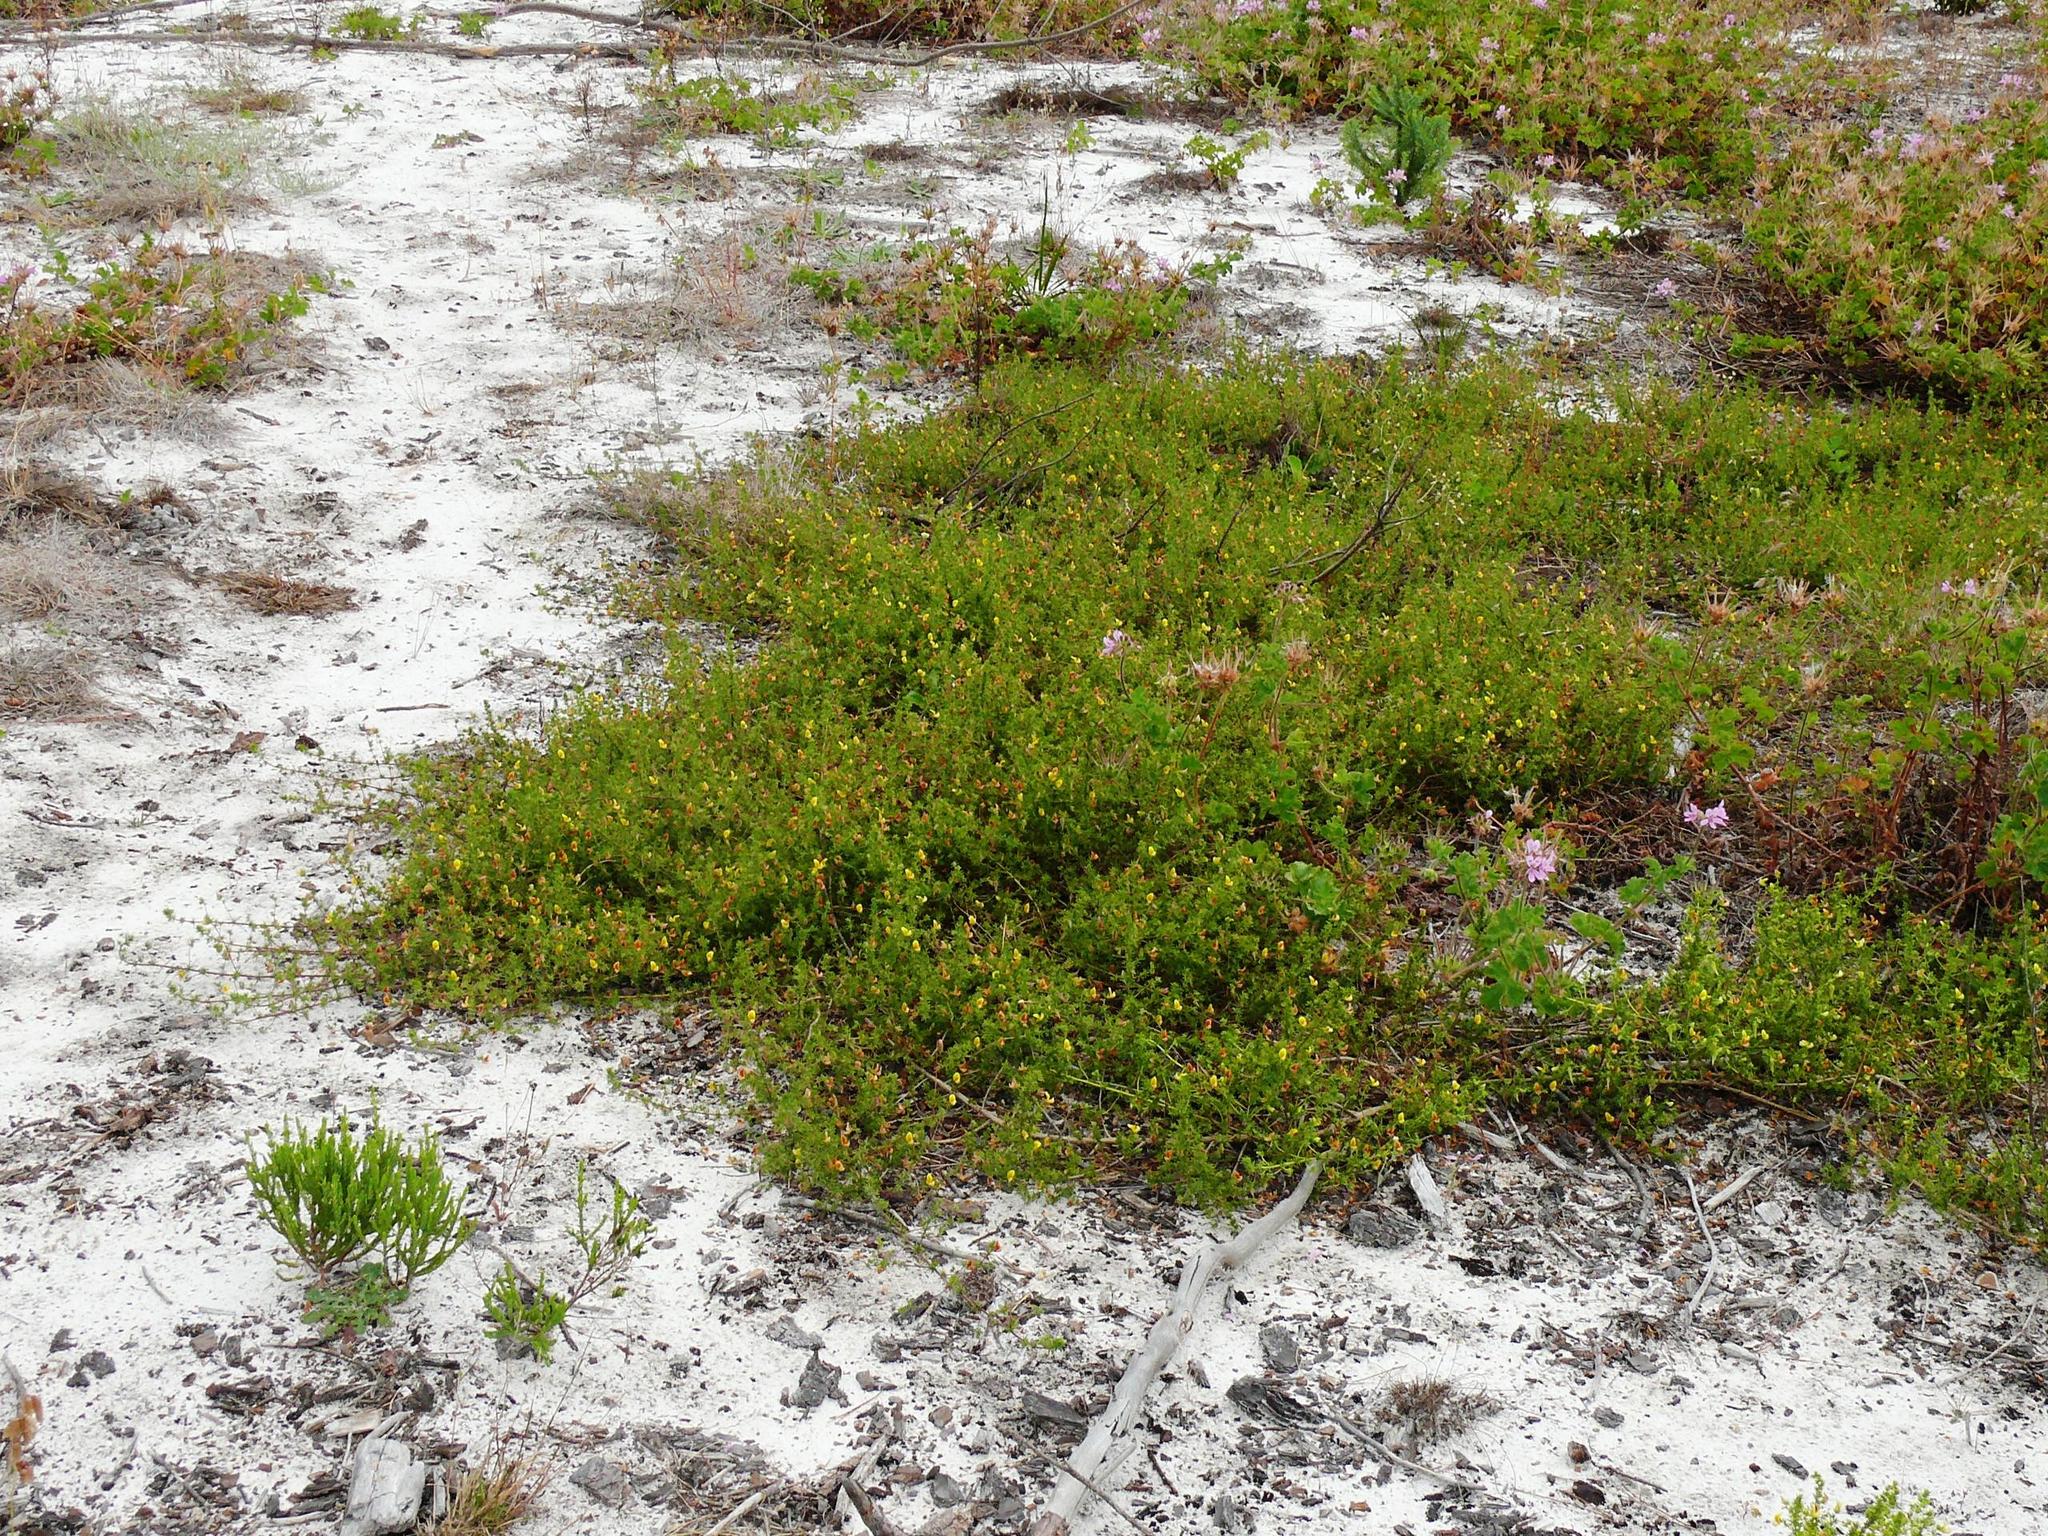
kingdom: Plantae
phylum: Tracheophyta
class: Magnoliopsida
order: Fabales
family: Fabaceae
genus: Aspalathus
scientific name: Aspalathus retroflexa
